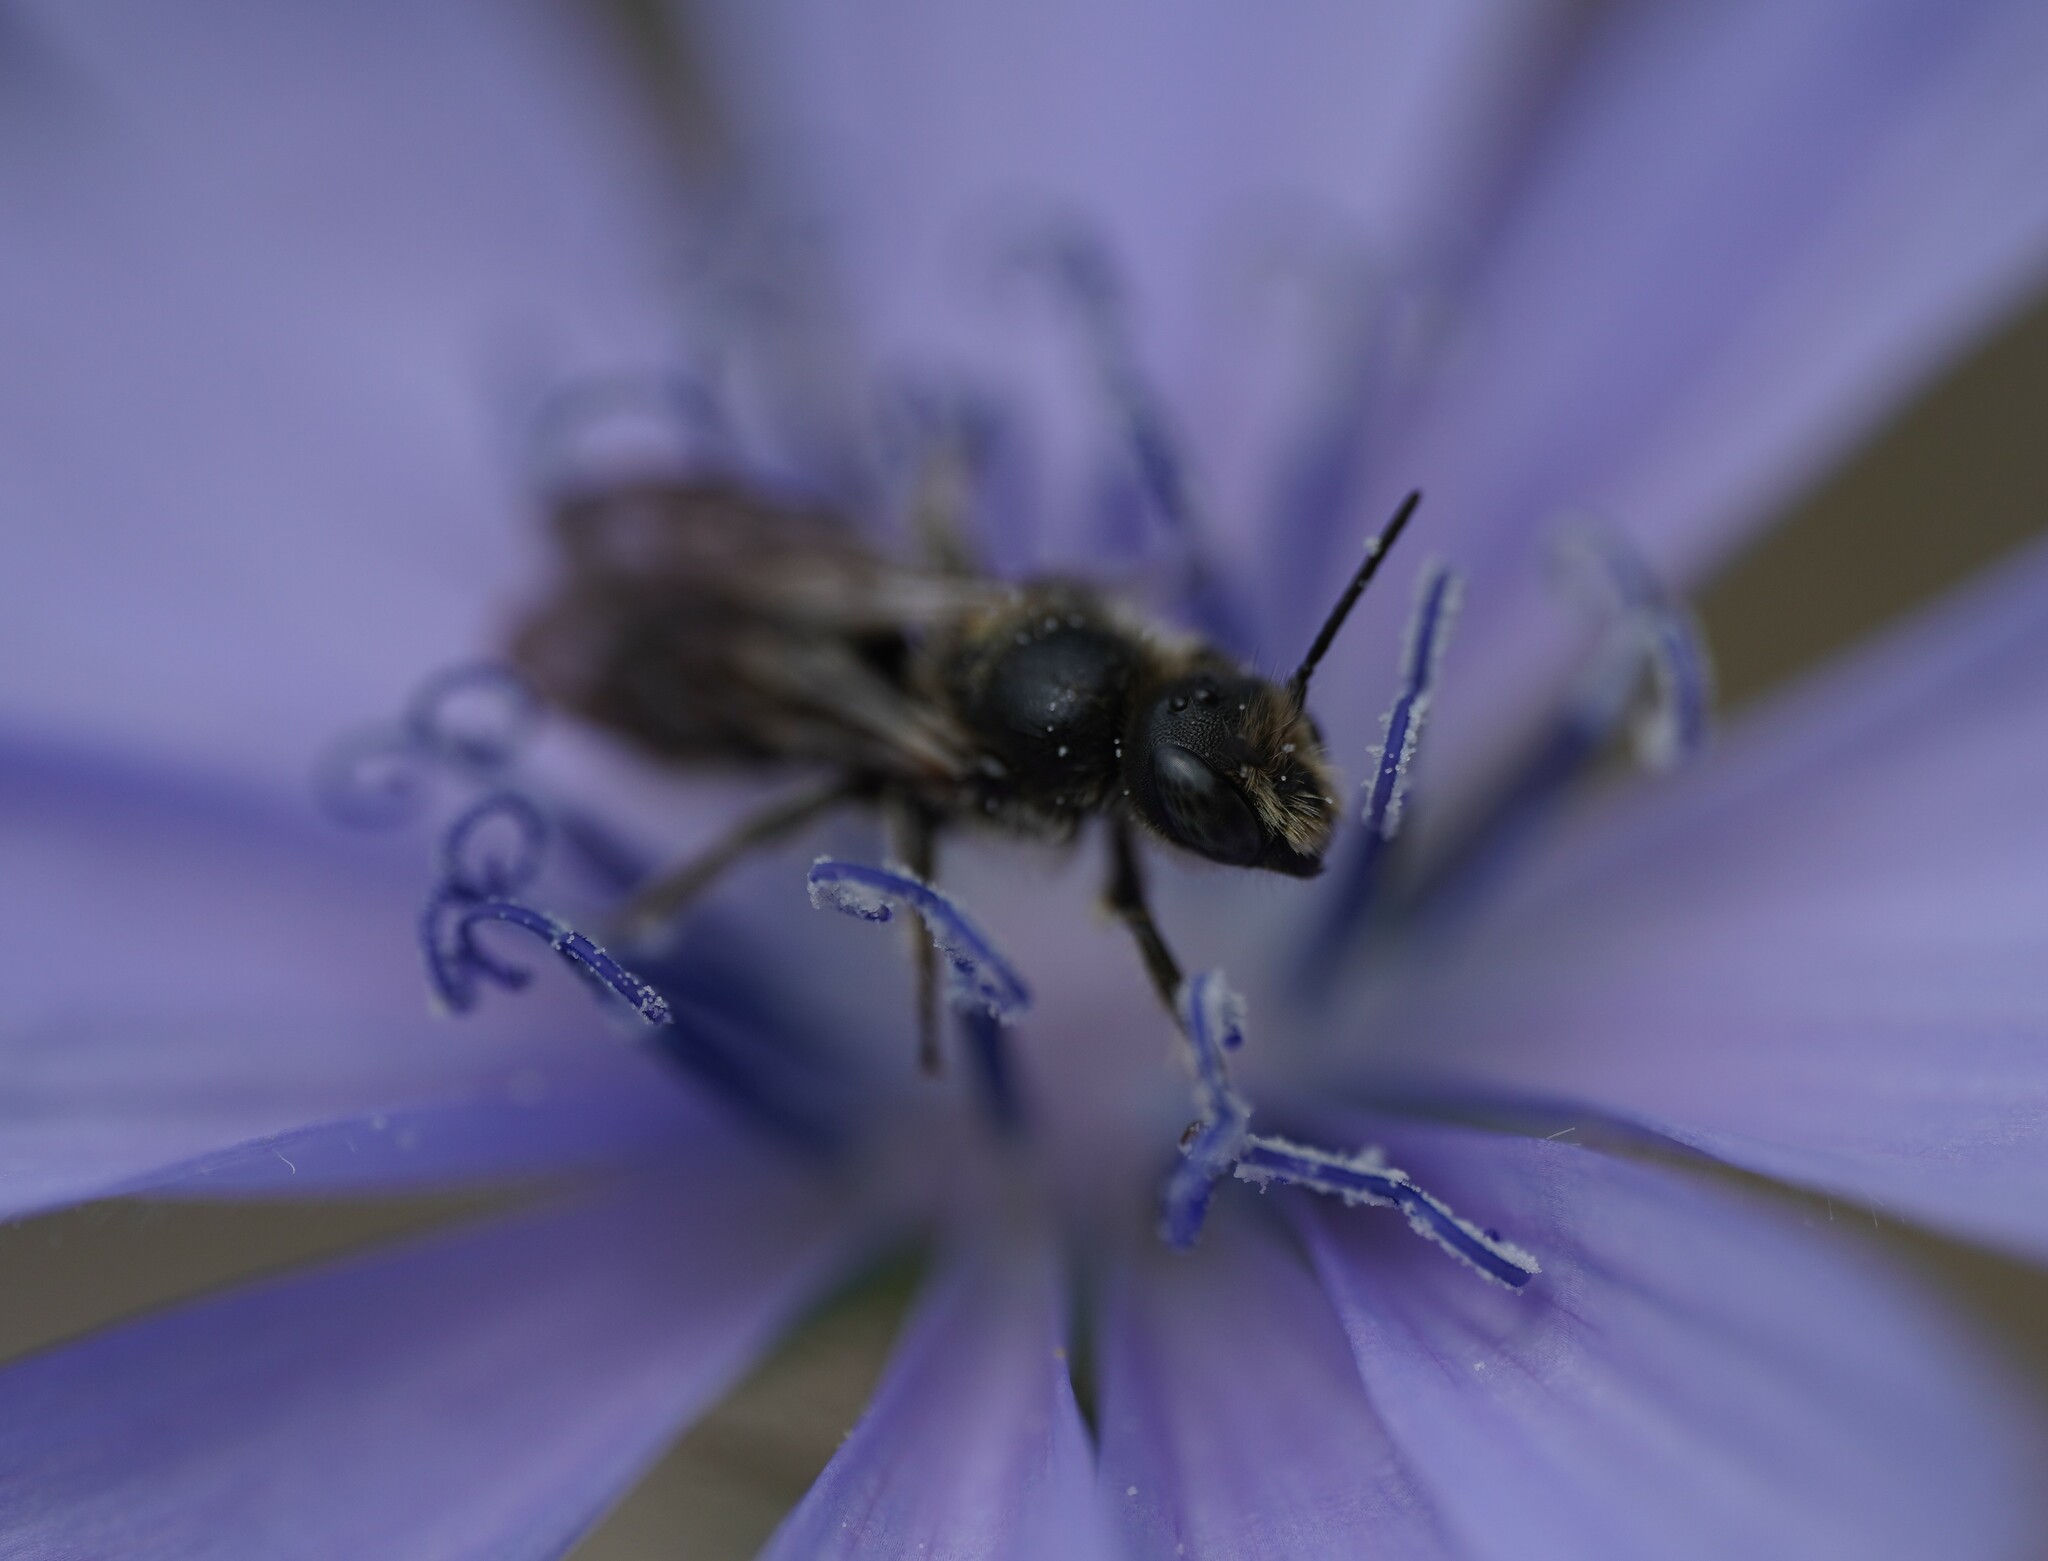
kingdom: Animalia
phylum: Arthropoda
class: Insecta
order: Hymenoptera
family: Megachilidae
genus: Chelostoma
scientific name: Chelostoma rapunculi
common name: Rampion scissor bee
